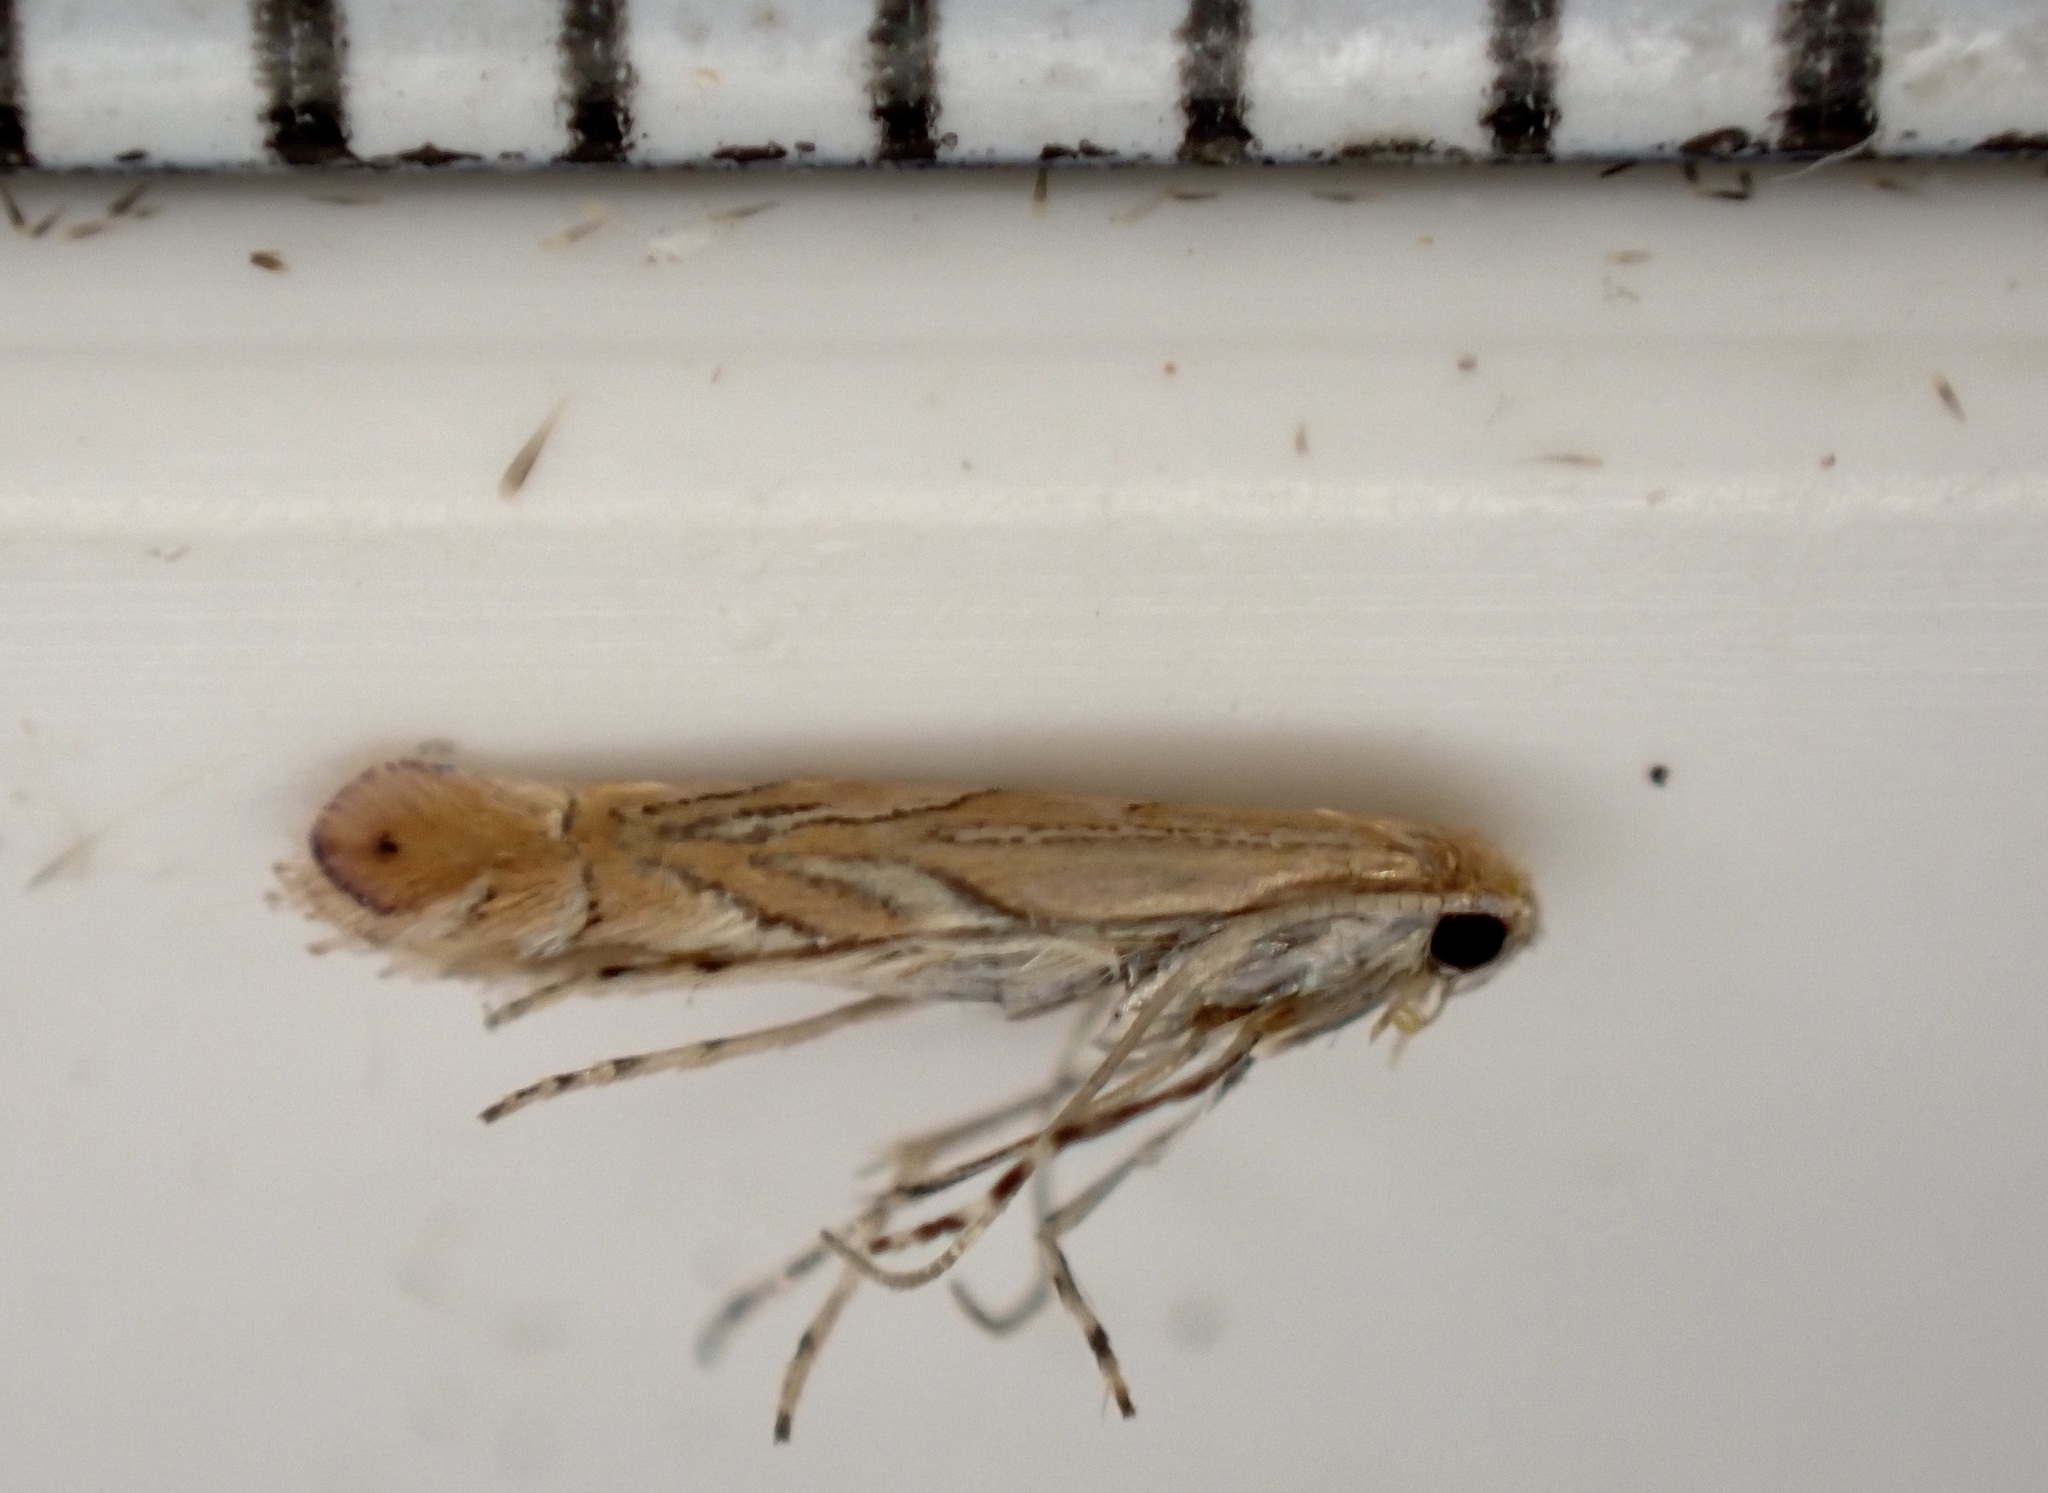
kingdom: Animalia
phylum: Arthropoda
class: Insecta
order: Lepidoptera
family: Gracillariidae
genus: Phyllonorycter
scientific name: Phyllonorycter messaniella
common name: Garden midget
